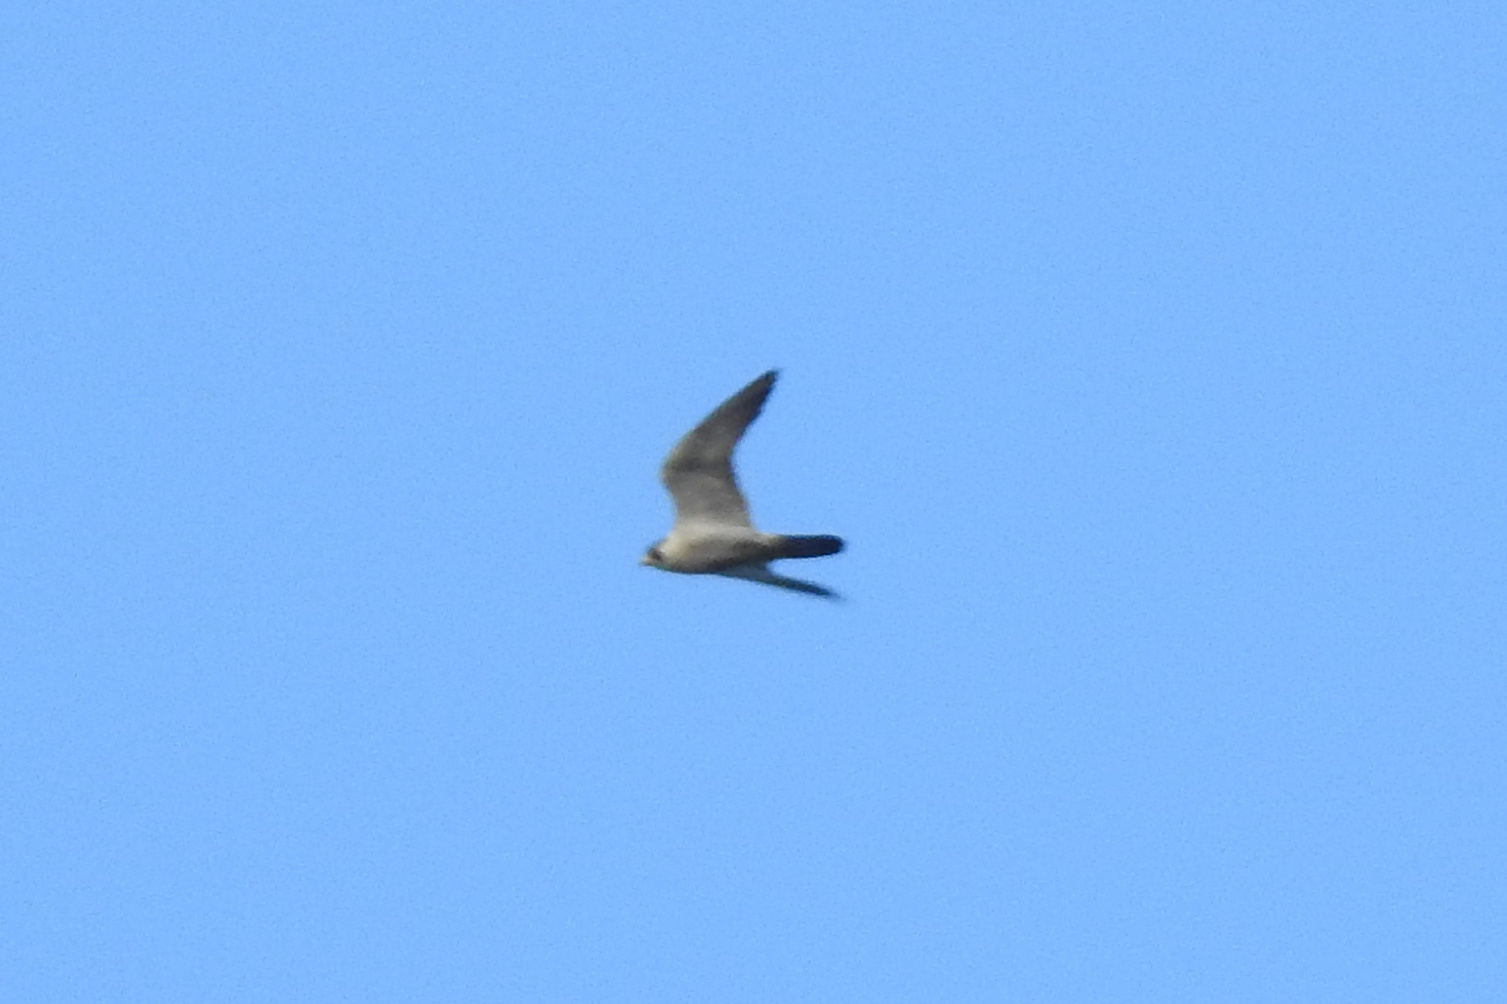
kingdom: Animalia
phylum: Chordata
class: Aves
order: Falconiformes
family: Falconidae
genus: Falco
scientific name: Falco peregrinus
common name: Peregrine falcon
